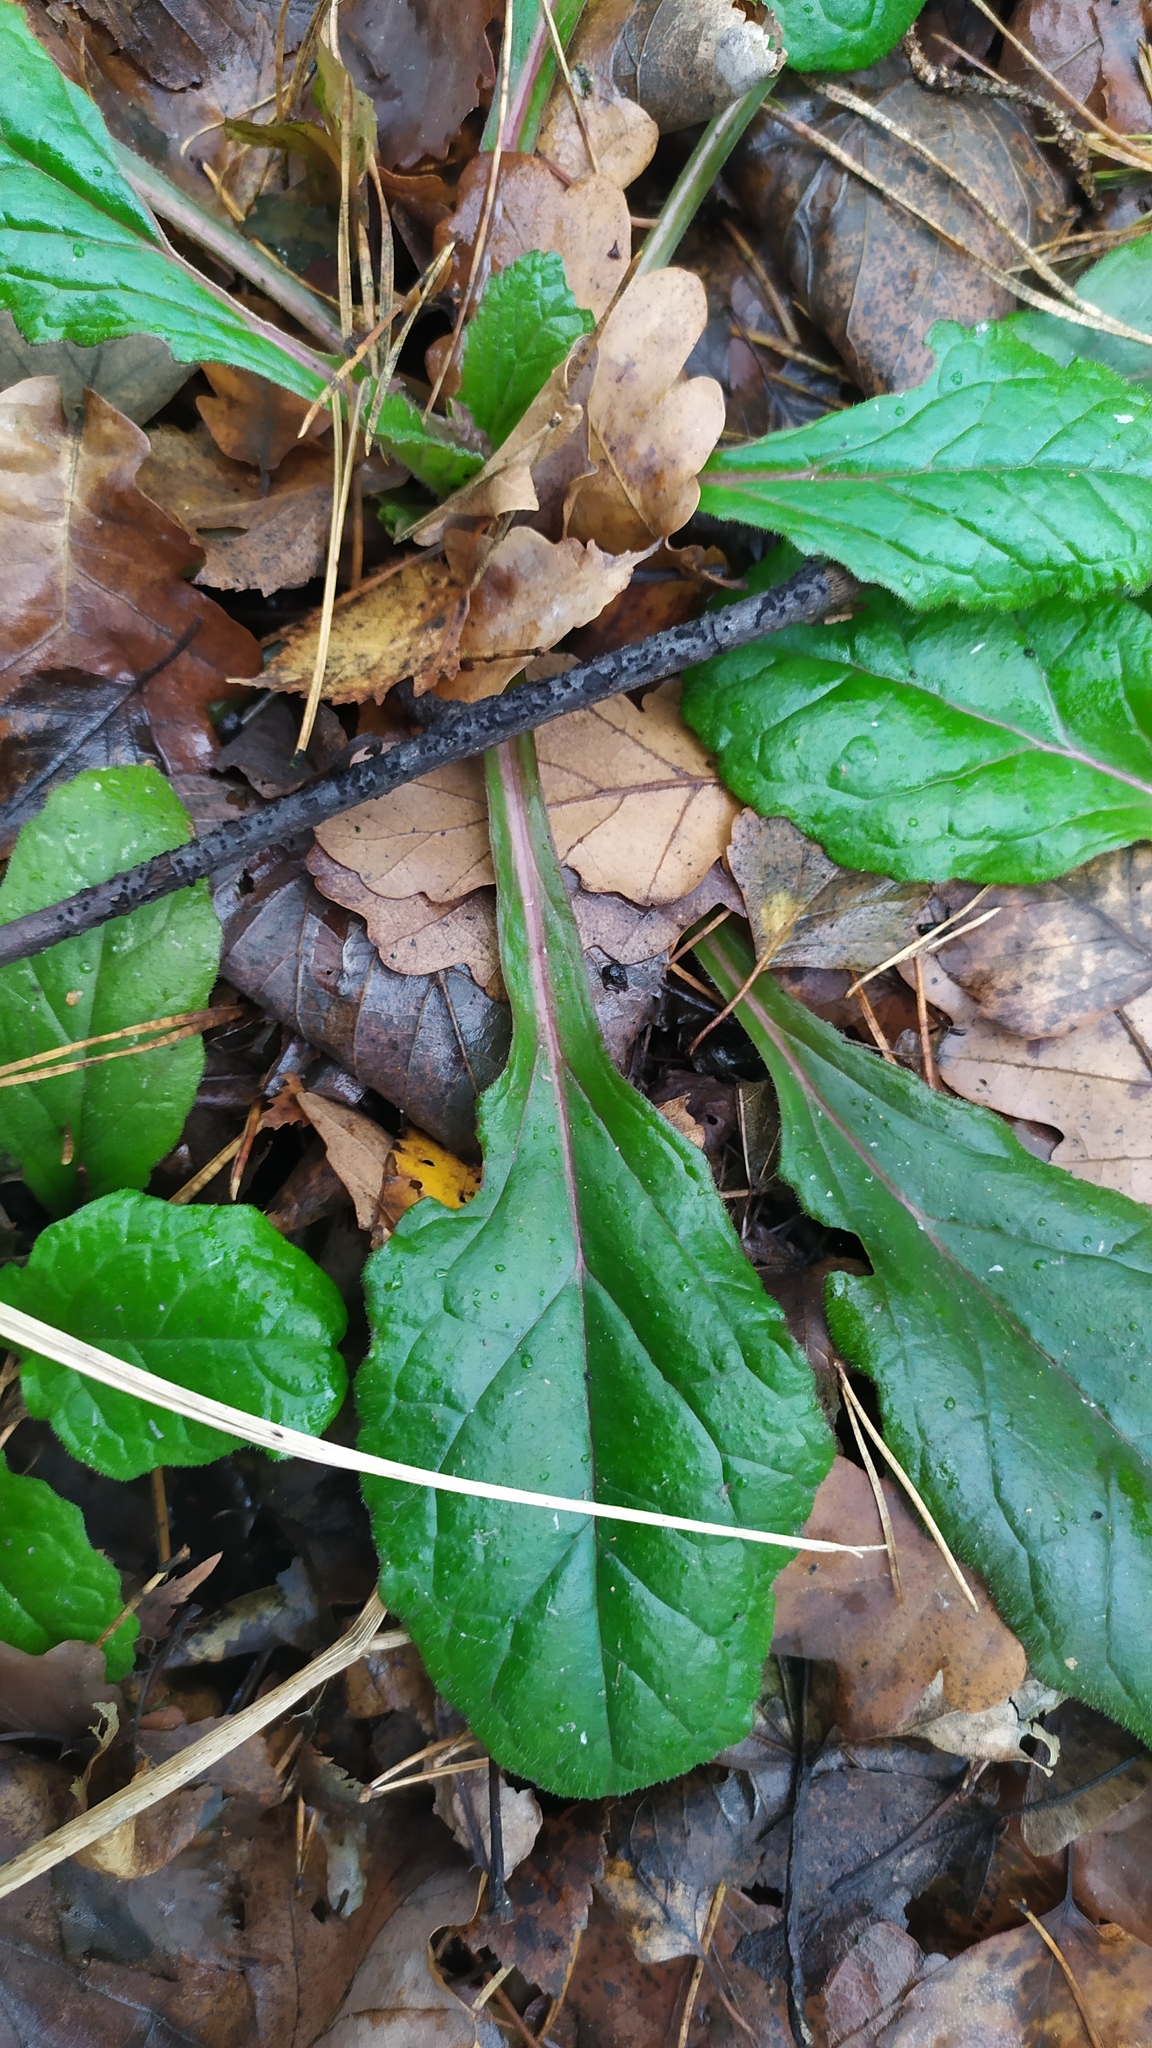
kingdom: Plantae
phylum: Tracheophyta
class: Magnoliopsida
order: Lamiales
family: Lamiaceae
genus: Ajuga
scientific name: Ajuga reptans
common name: Bugle
